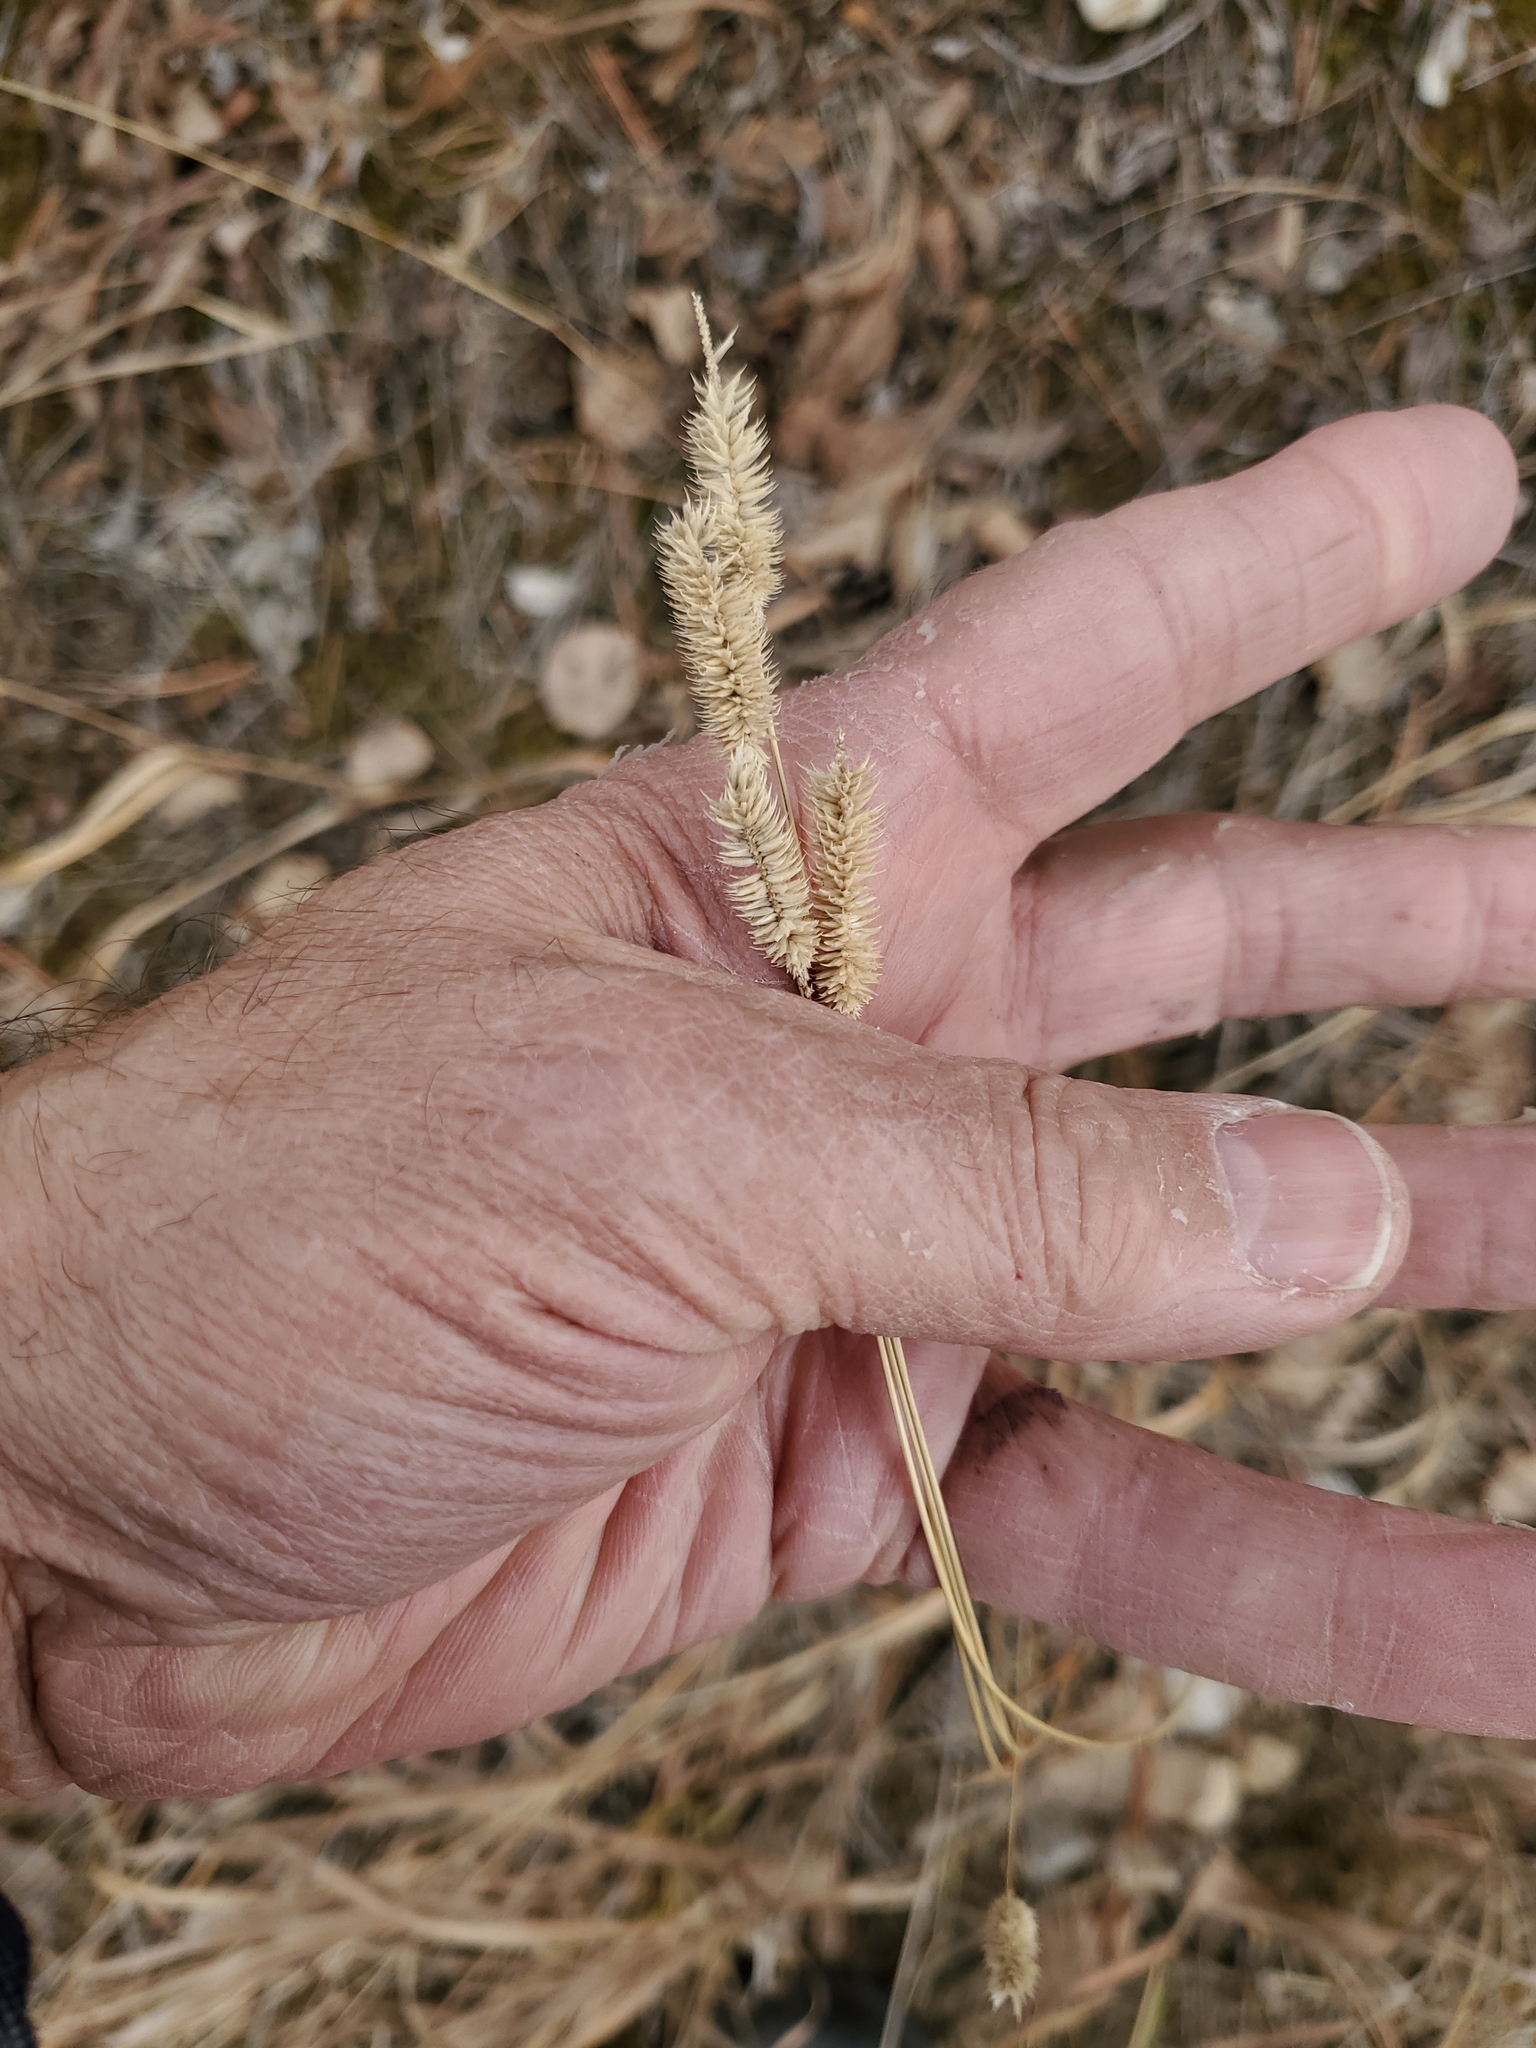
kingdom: Plantae
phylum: Tracheophyta
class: Liliopsida
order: Poales
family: Poaceae
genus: Phleum
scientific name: Phleum pratense
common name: Timothy grass
